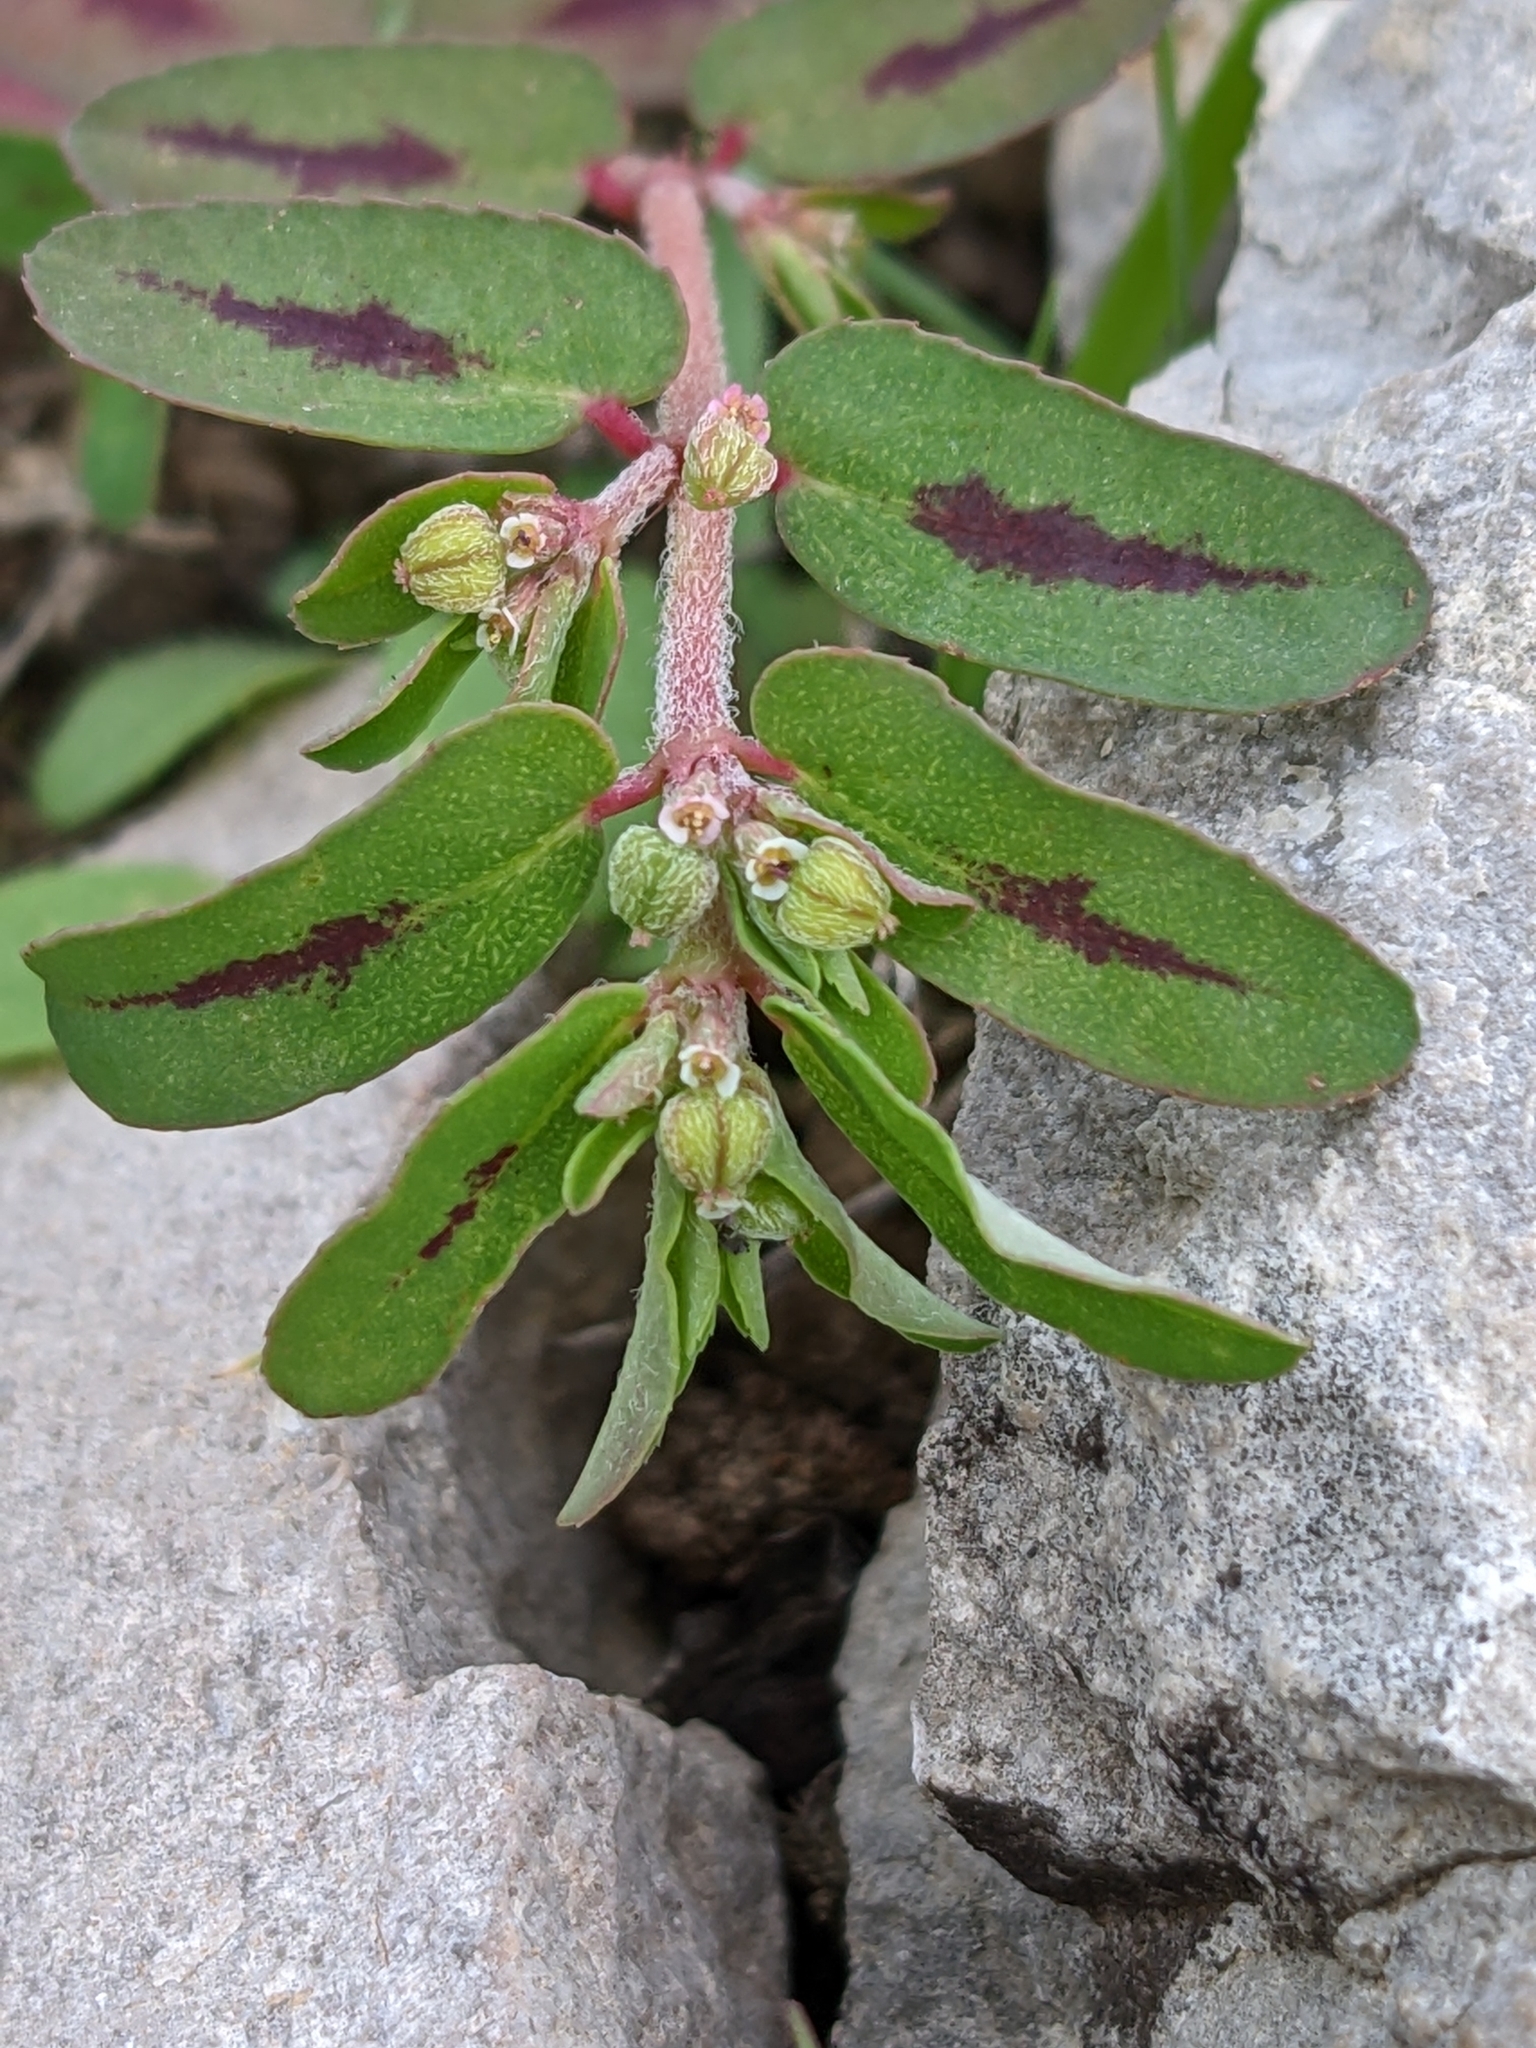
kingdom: Plantae
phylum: Tracheophyta
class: Magnoliopsida
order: Malpighiales
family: Euphorbiaceae
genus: Euphorbia
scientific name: Euphorbia maculata
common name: Spotted spurge
